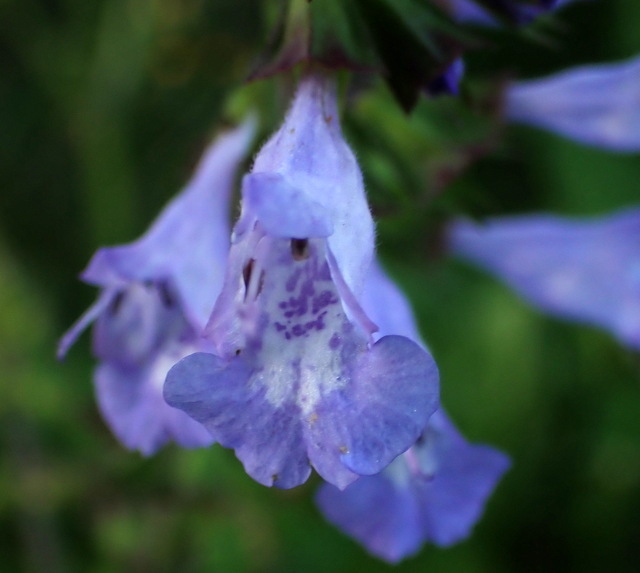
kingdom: Plantae
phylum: Tracheophyta
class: Magnoliopsida
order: Lamiales
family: Lamiaceae
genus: Salvia
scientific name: Salvia lyrata
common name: Cancerweed
